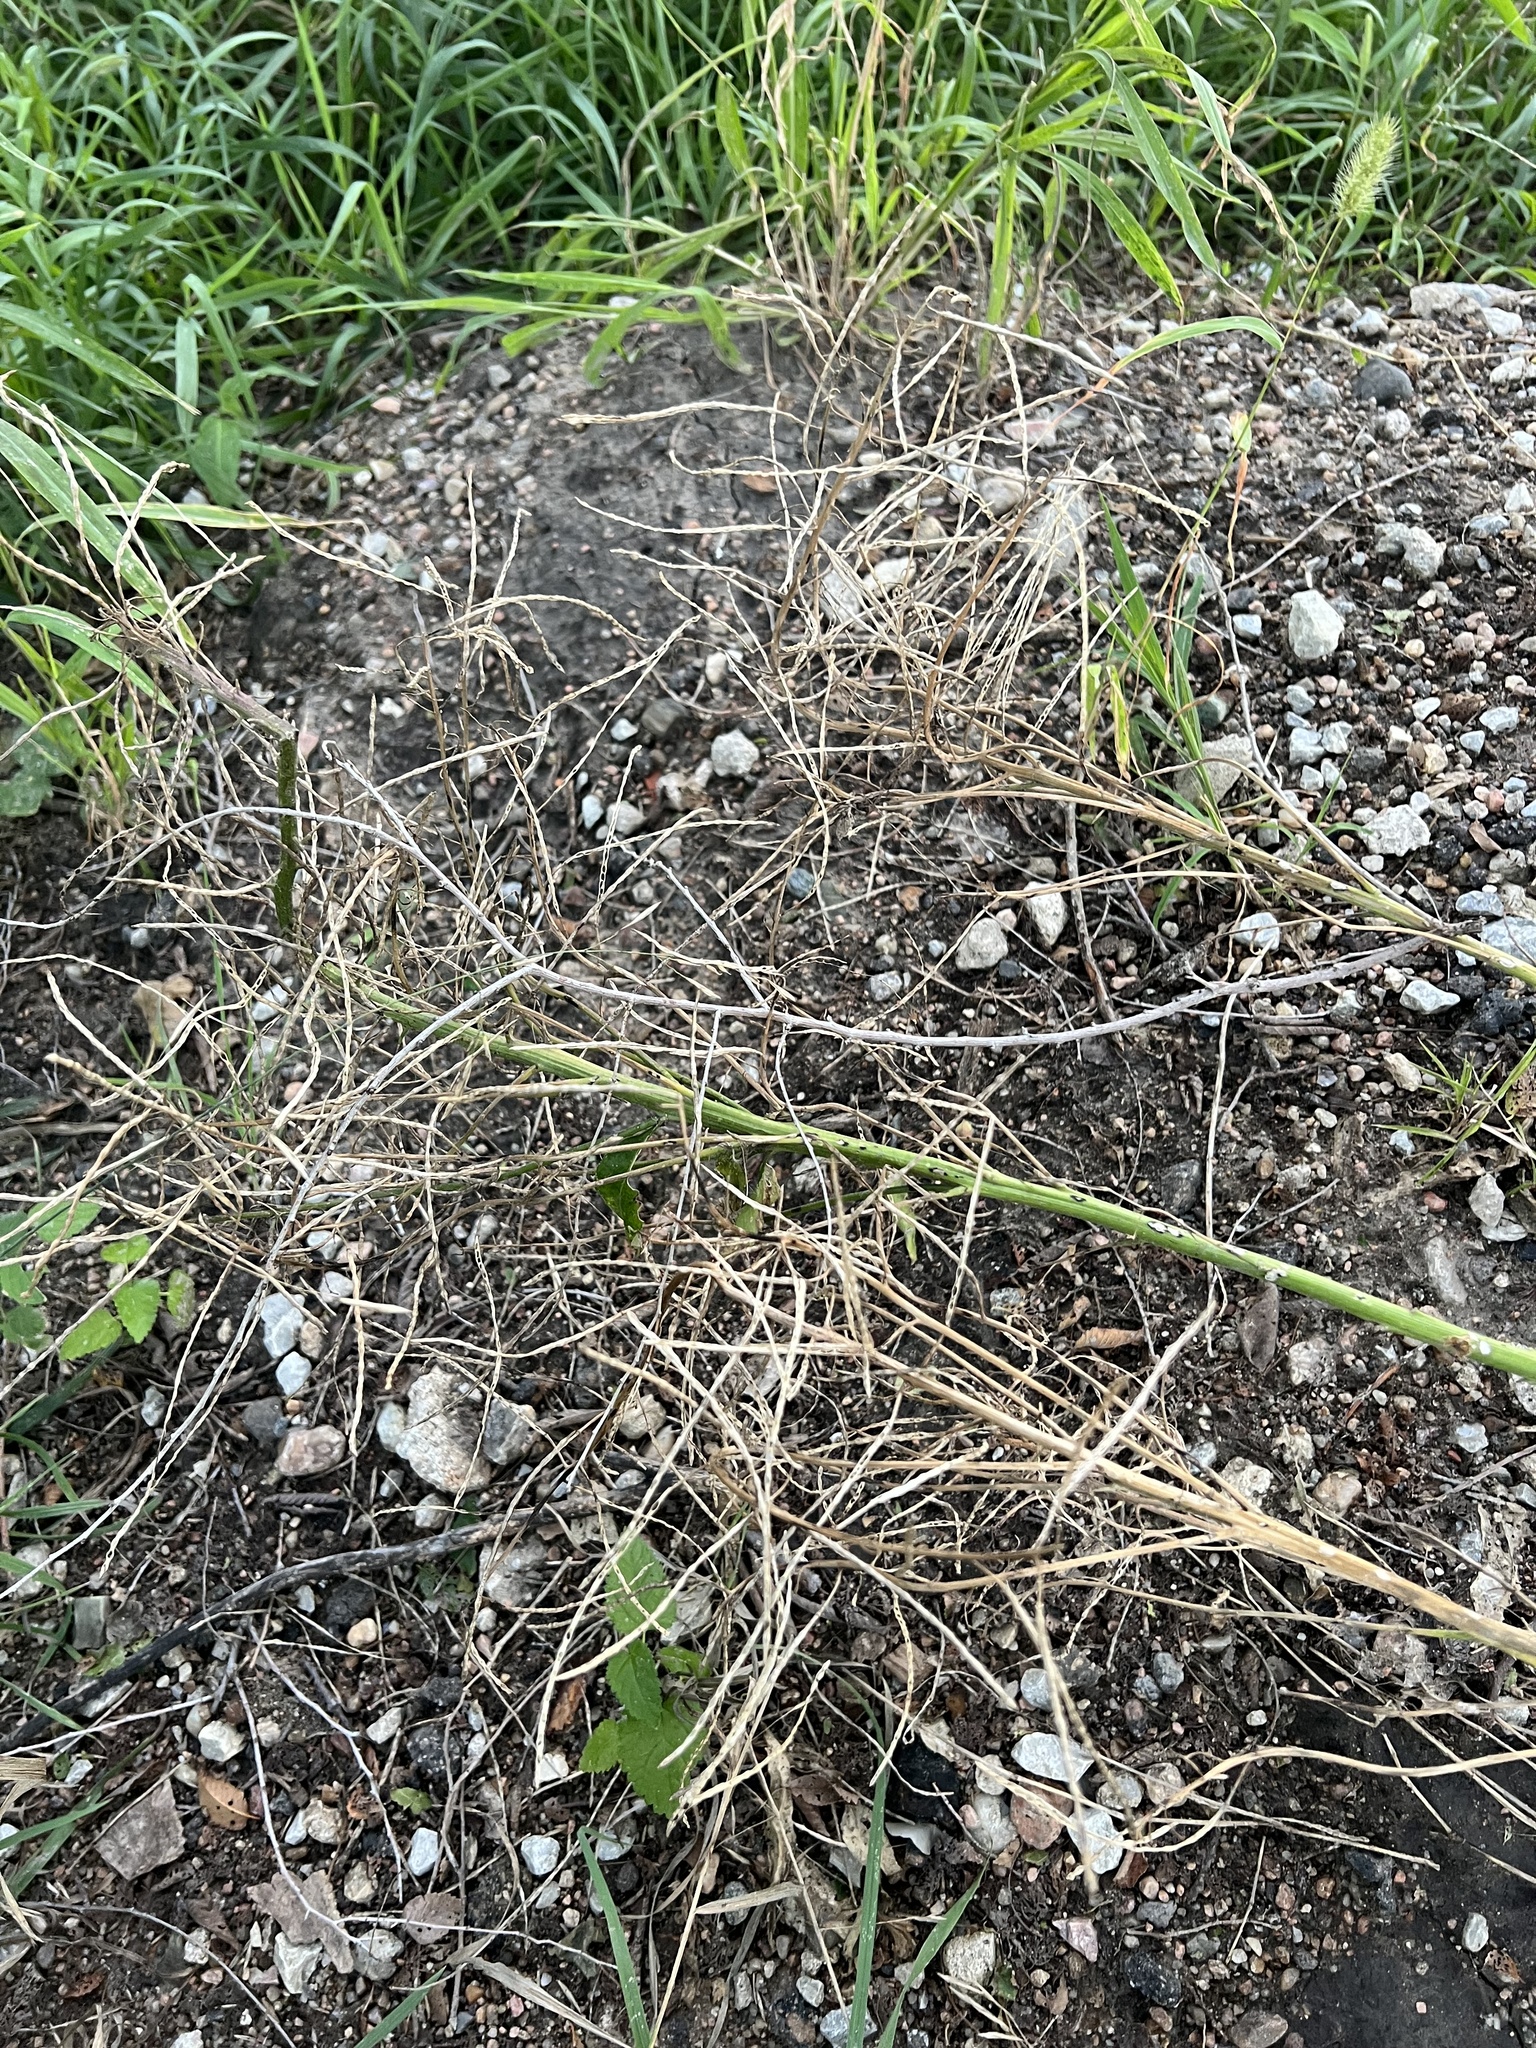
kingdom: Plantae
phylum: Tracheophyta
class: Magnoliopsida
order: Brassicales
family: Brassicaceae
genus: Alliaria
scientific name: Alliaria petiolata
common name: Garlic mustard
